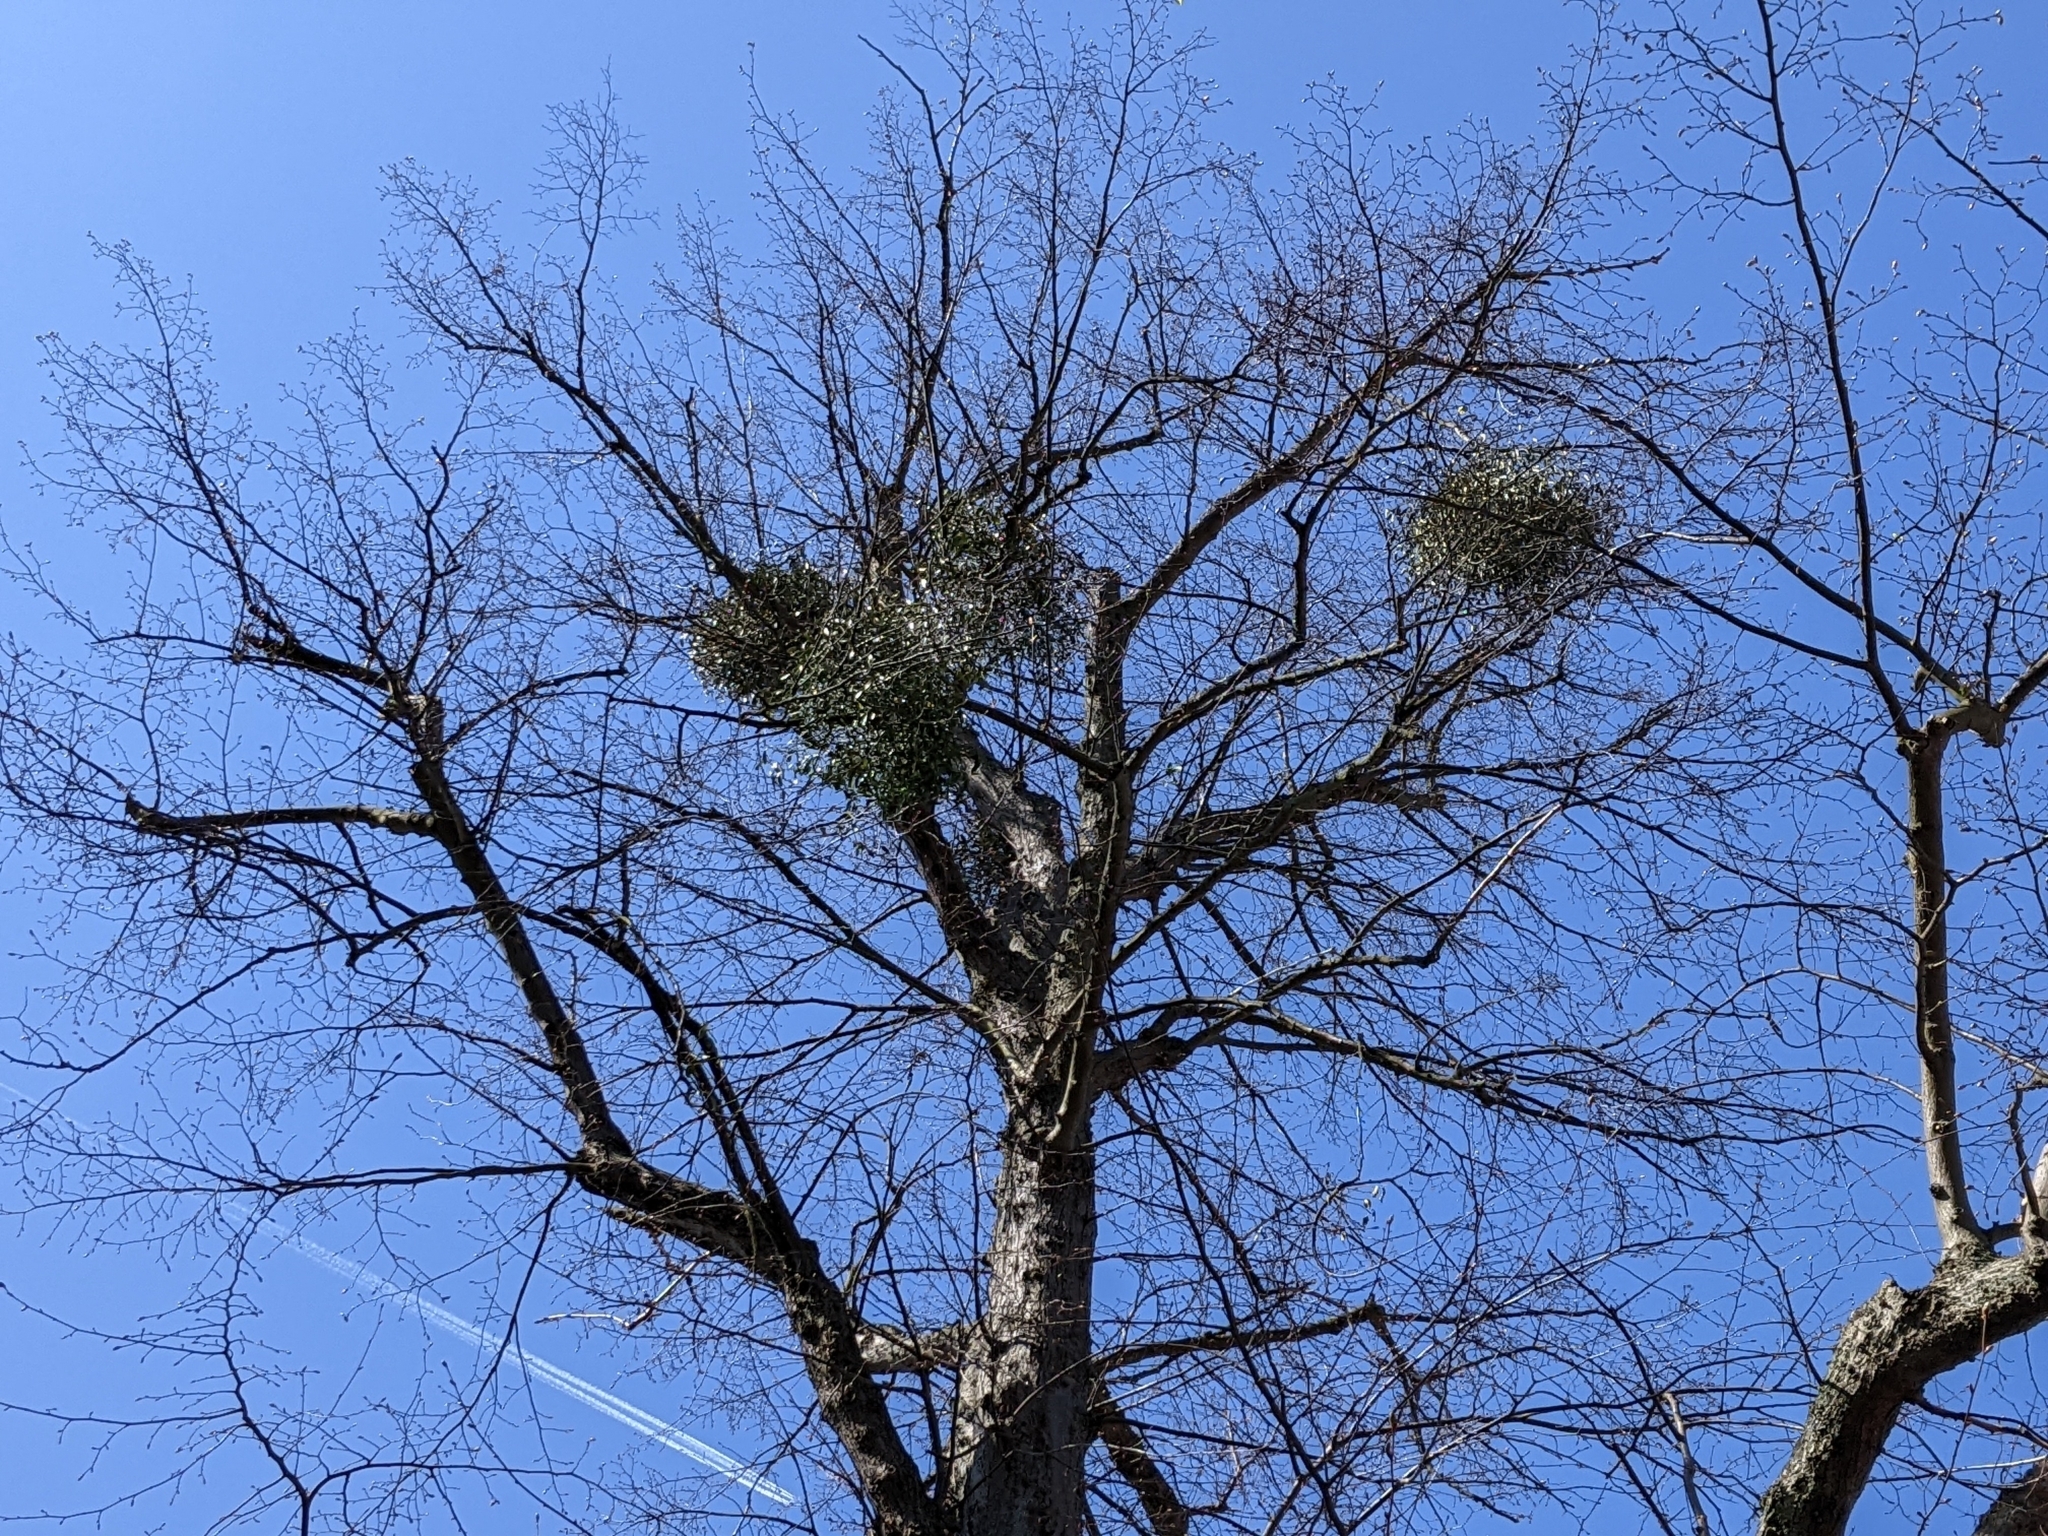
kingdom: Plantae
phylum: Tracheophyta
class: Magnoliopsida
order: Santalales
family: Viscaceae
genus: Viscum
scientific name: Viscum album
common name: Mistletoe
